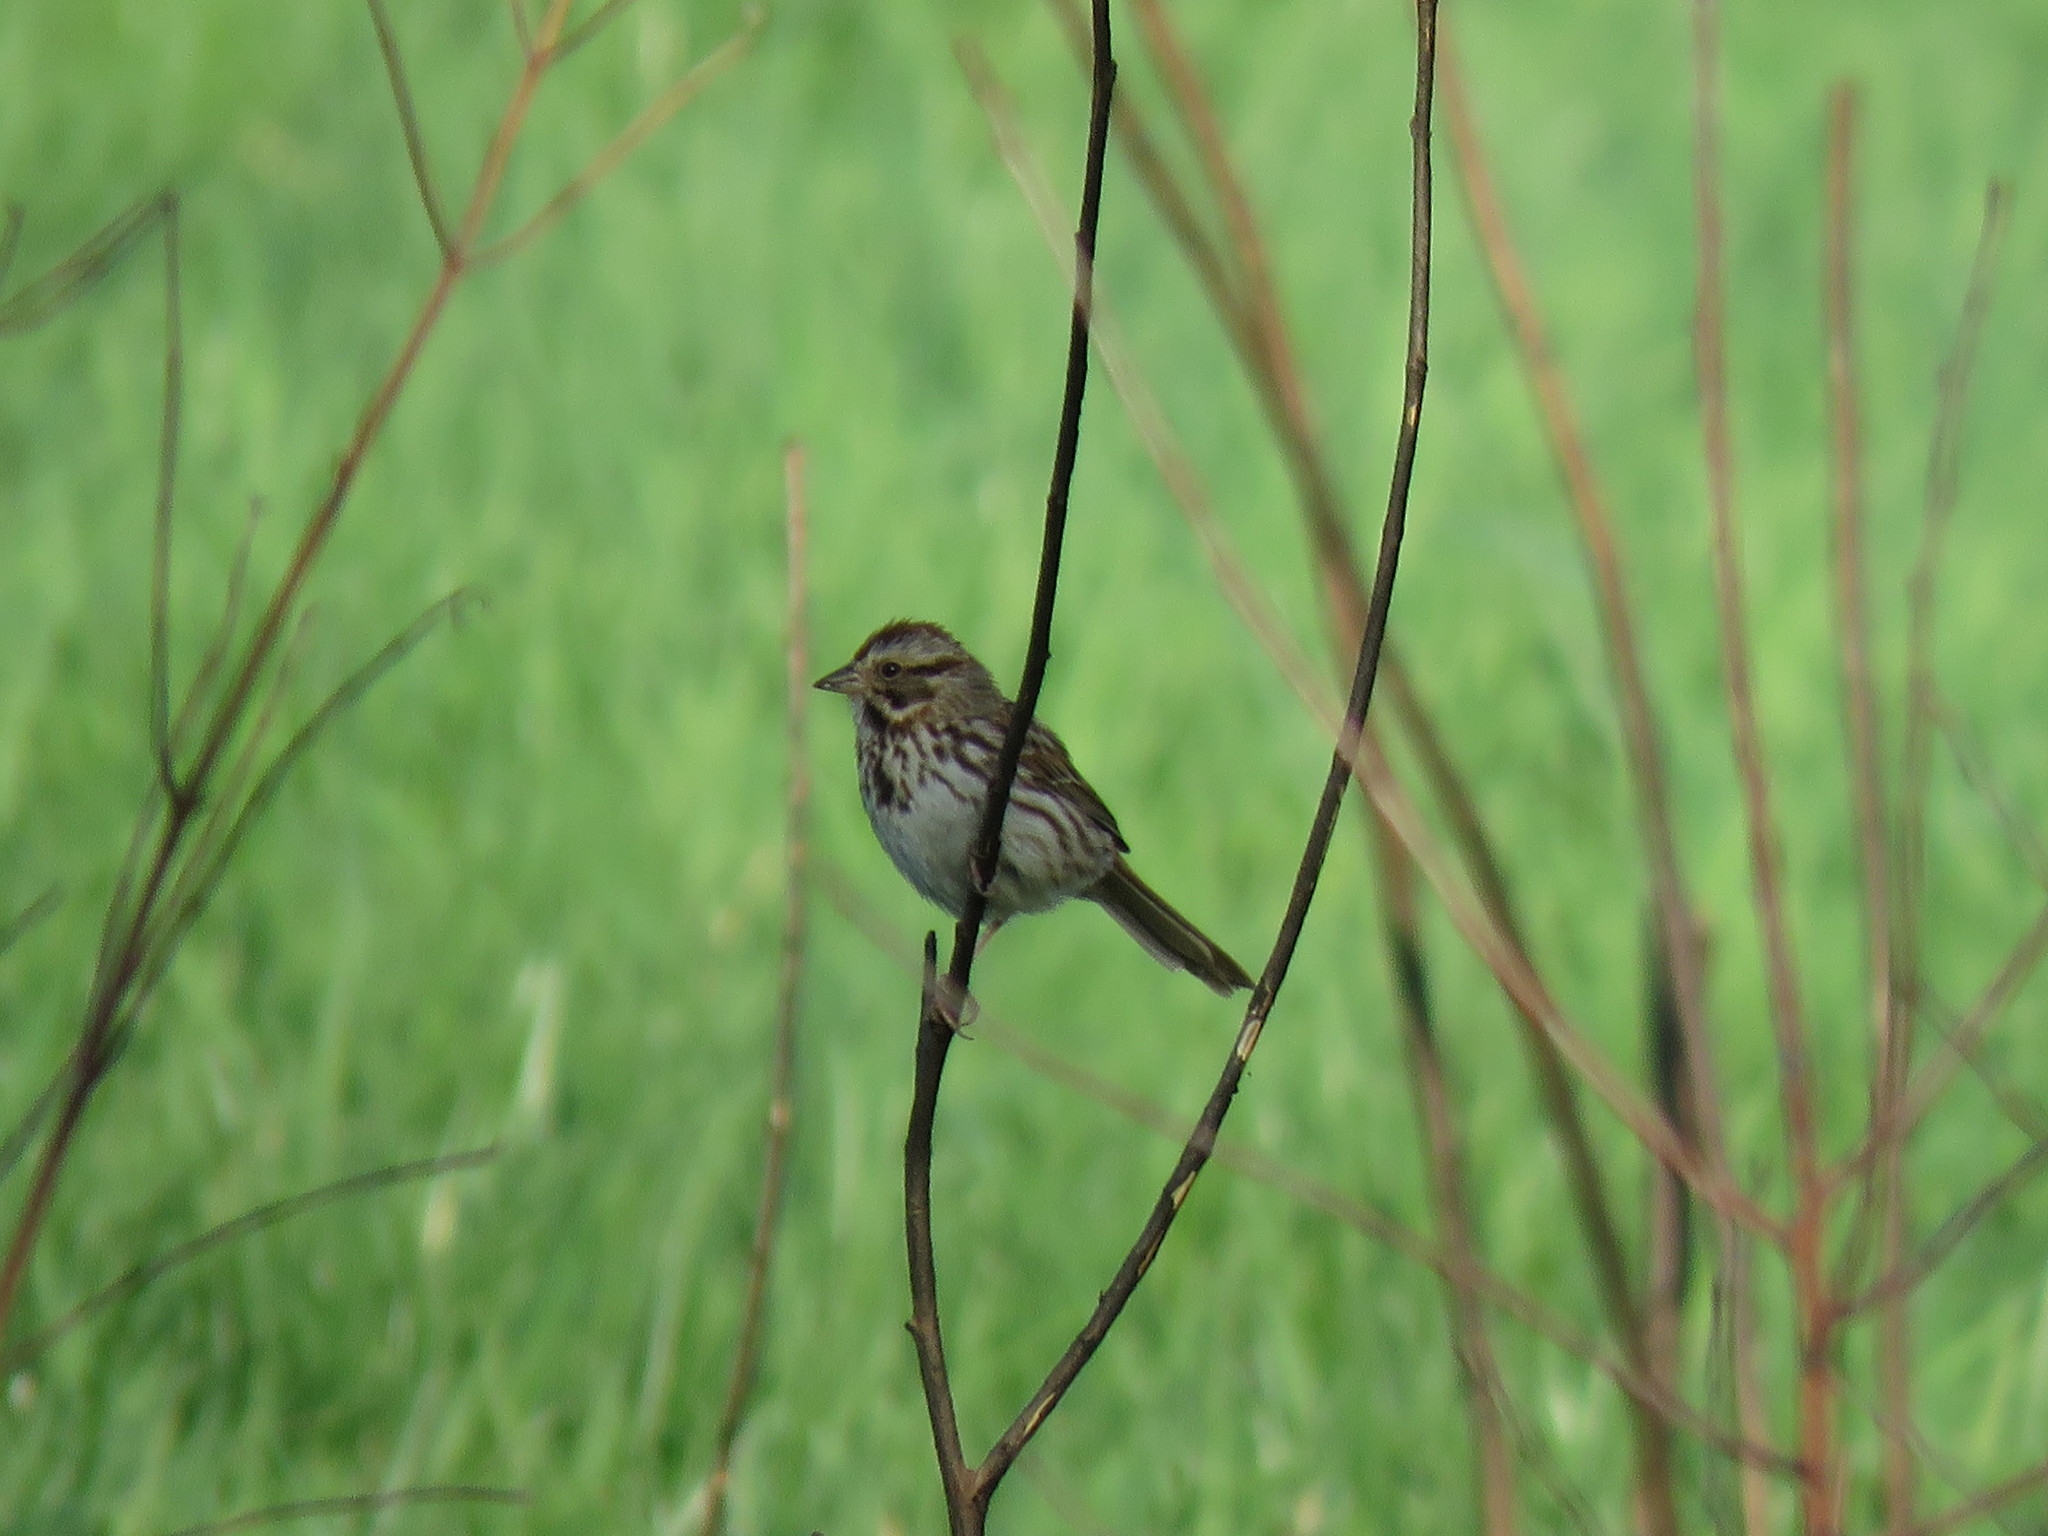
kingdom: Animalia
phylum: Chordata
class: Aves
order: Passeriformes
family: Passerellidae
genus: Melospiza
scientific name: Melospiza melodia
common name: Song sparrow
